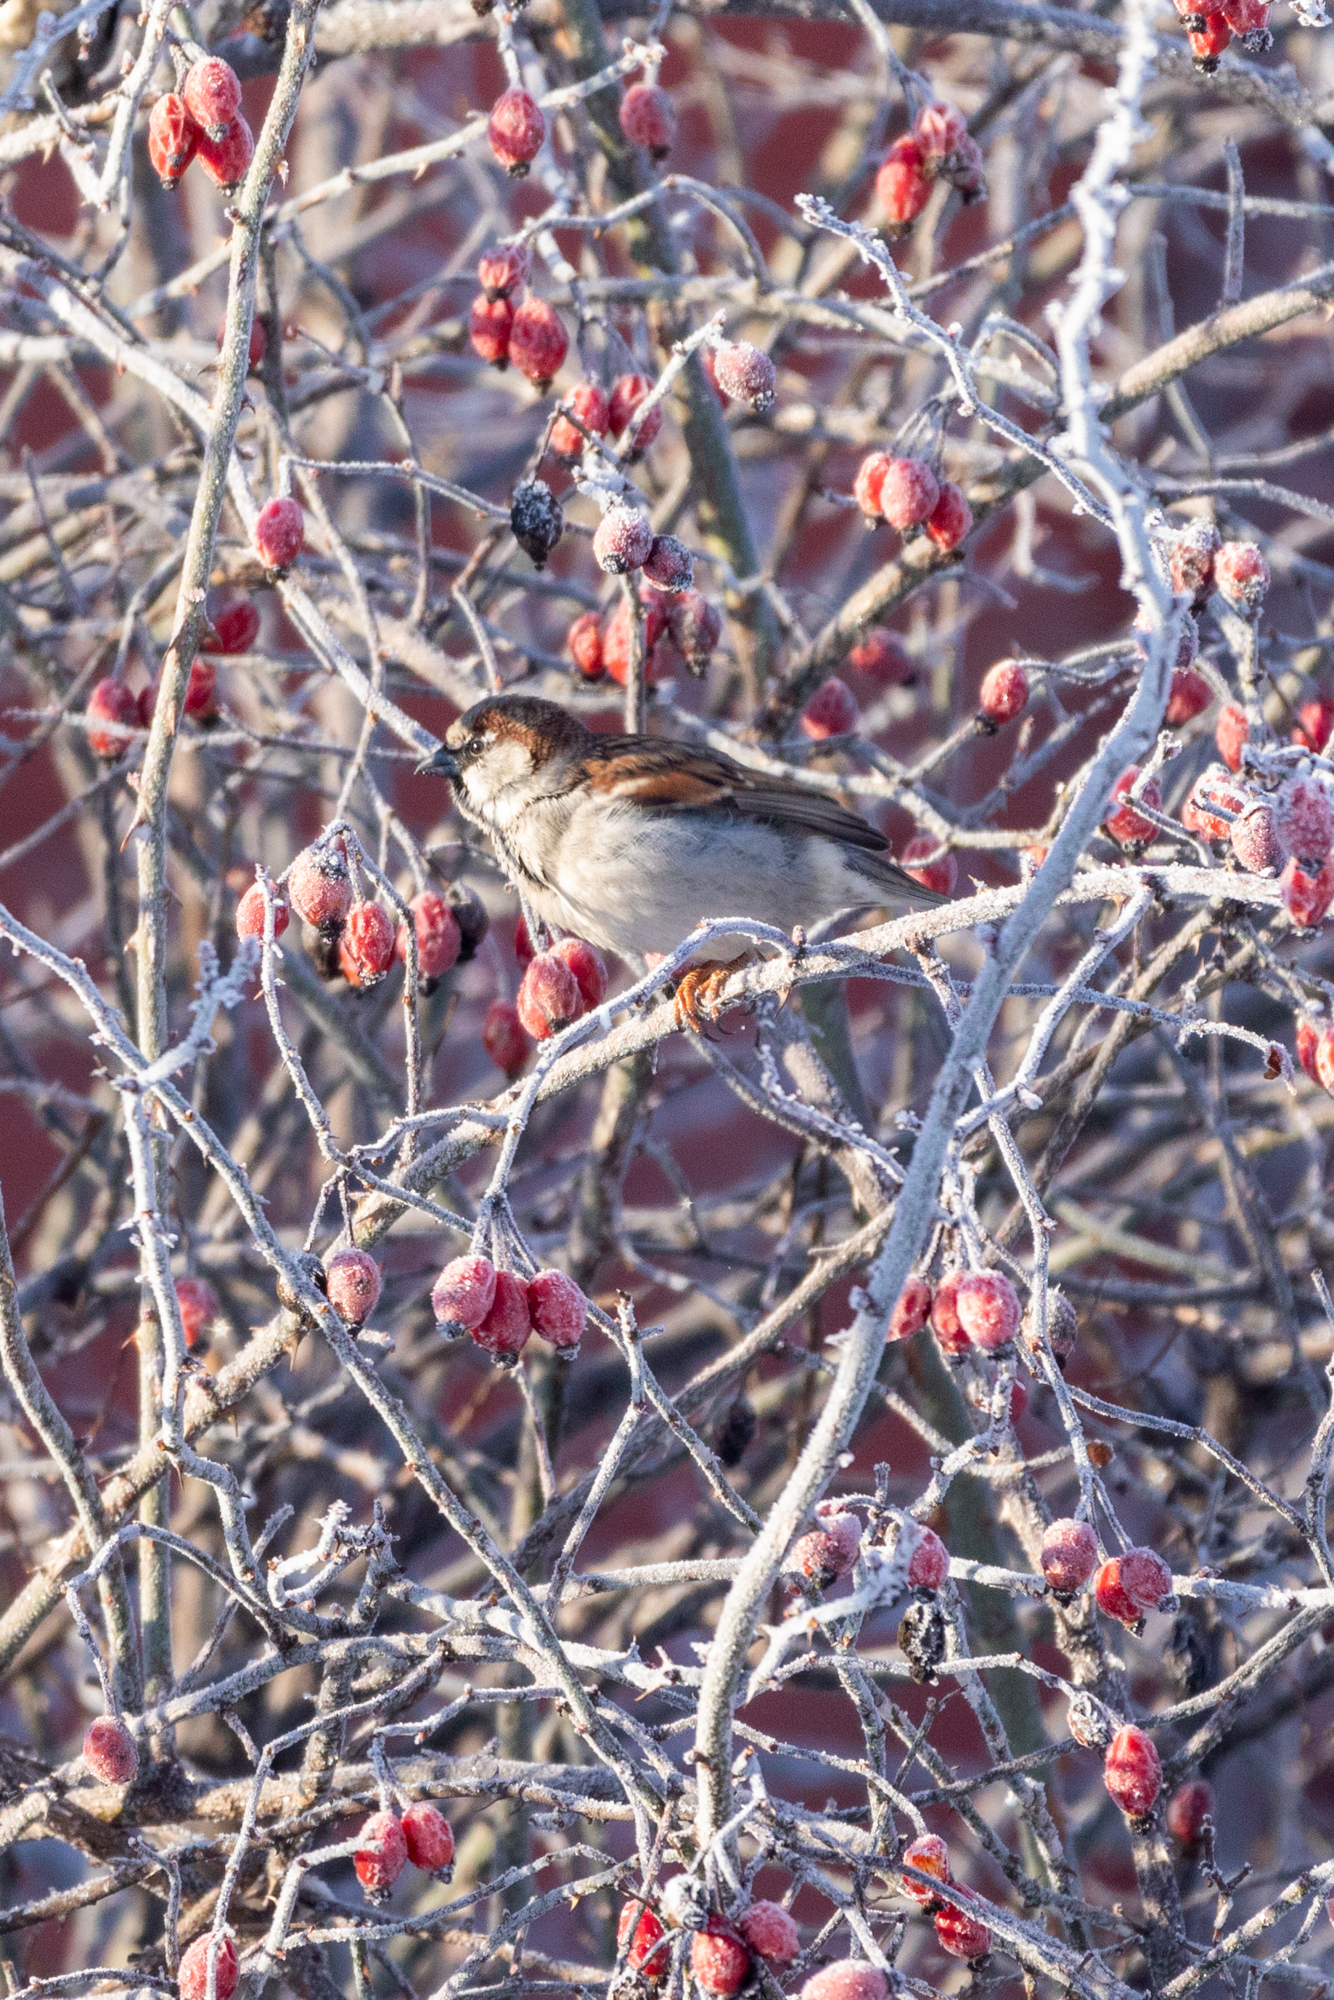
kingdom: Animalia
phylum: Chordata
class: Aves
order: Passeriformes
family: Passeridae
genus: Passer
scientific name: Passer domesticus
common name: House sparrow
